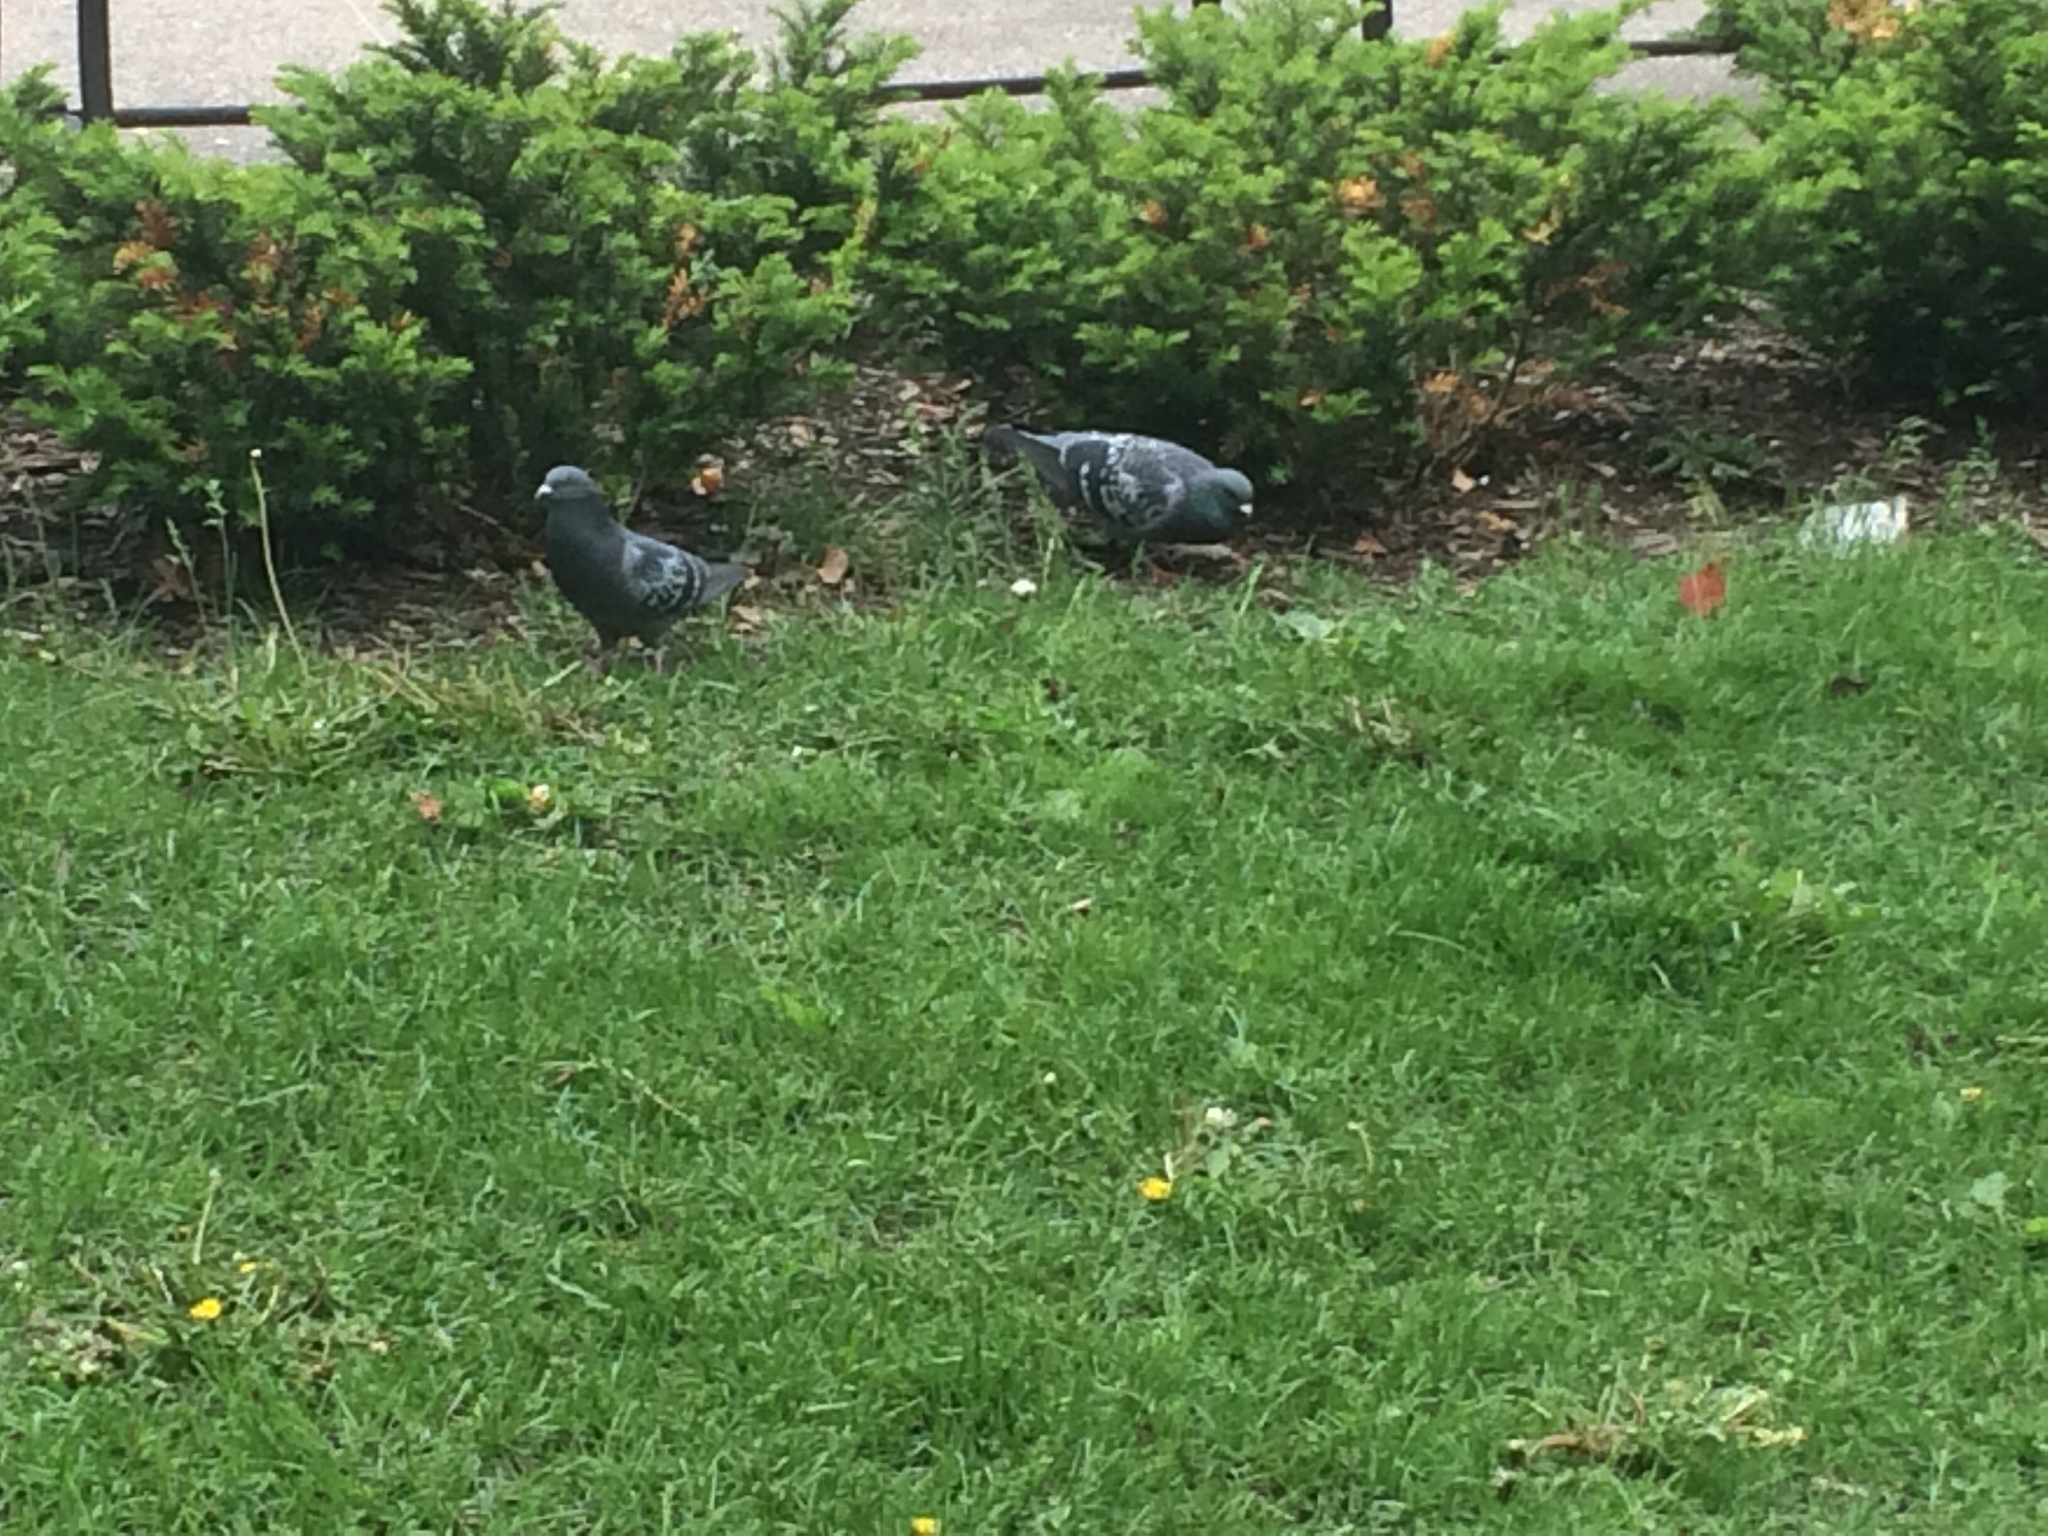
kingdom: Animalia
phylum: Chordata
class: Aves
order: Columbiformes
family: Columbidae
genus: Columba
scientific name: Columba livia
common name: Rock pigeon
